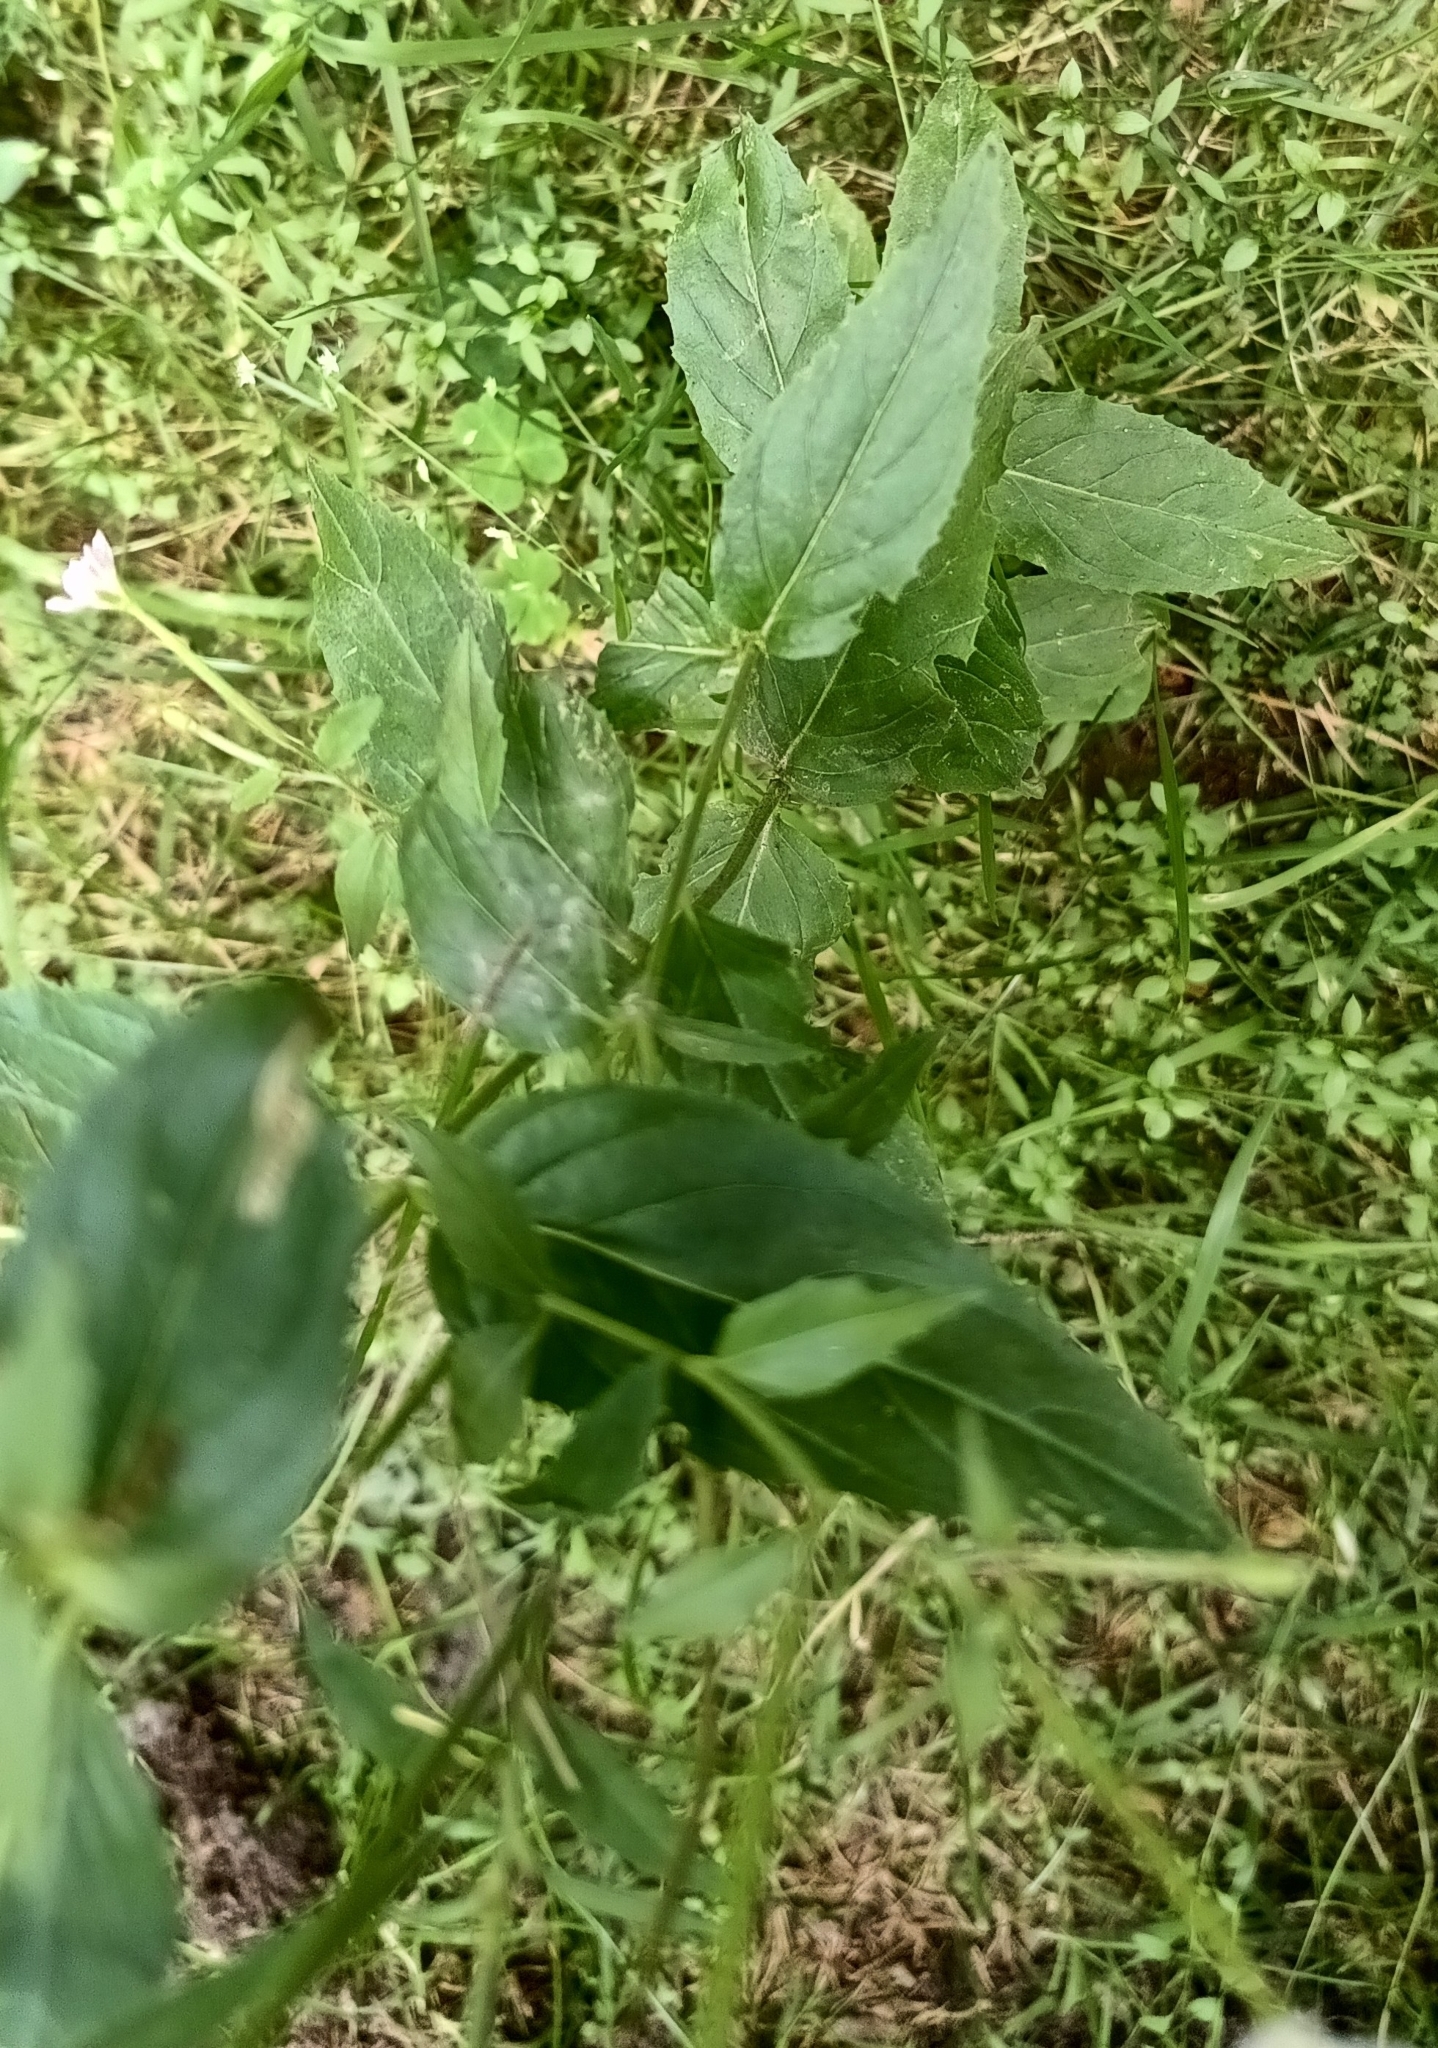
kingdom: Plantae
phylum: Tracheophyta
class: Magnoliopsida
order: Myrtales
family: Onagraceae
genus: Epilobium
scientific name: Epilobium montanum
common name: Broad-leaved willowherb
